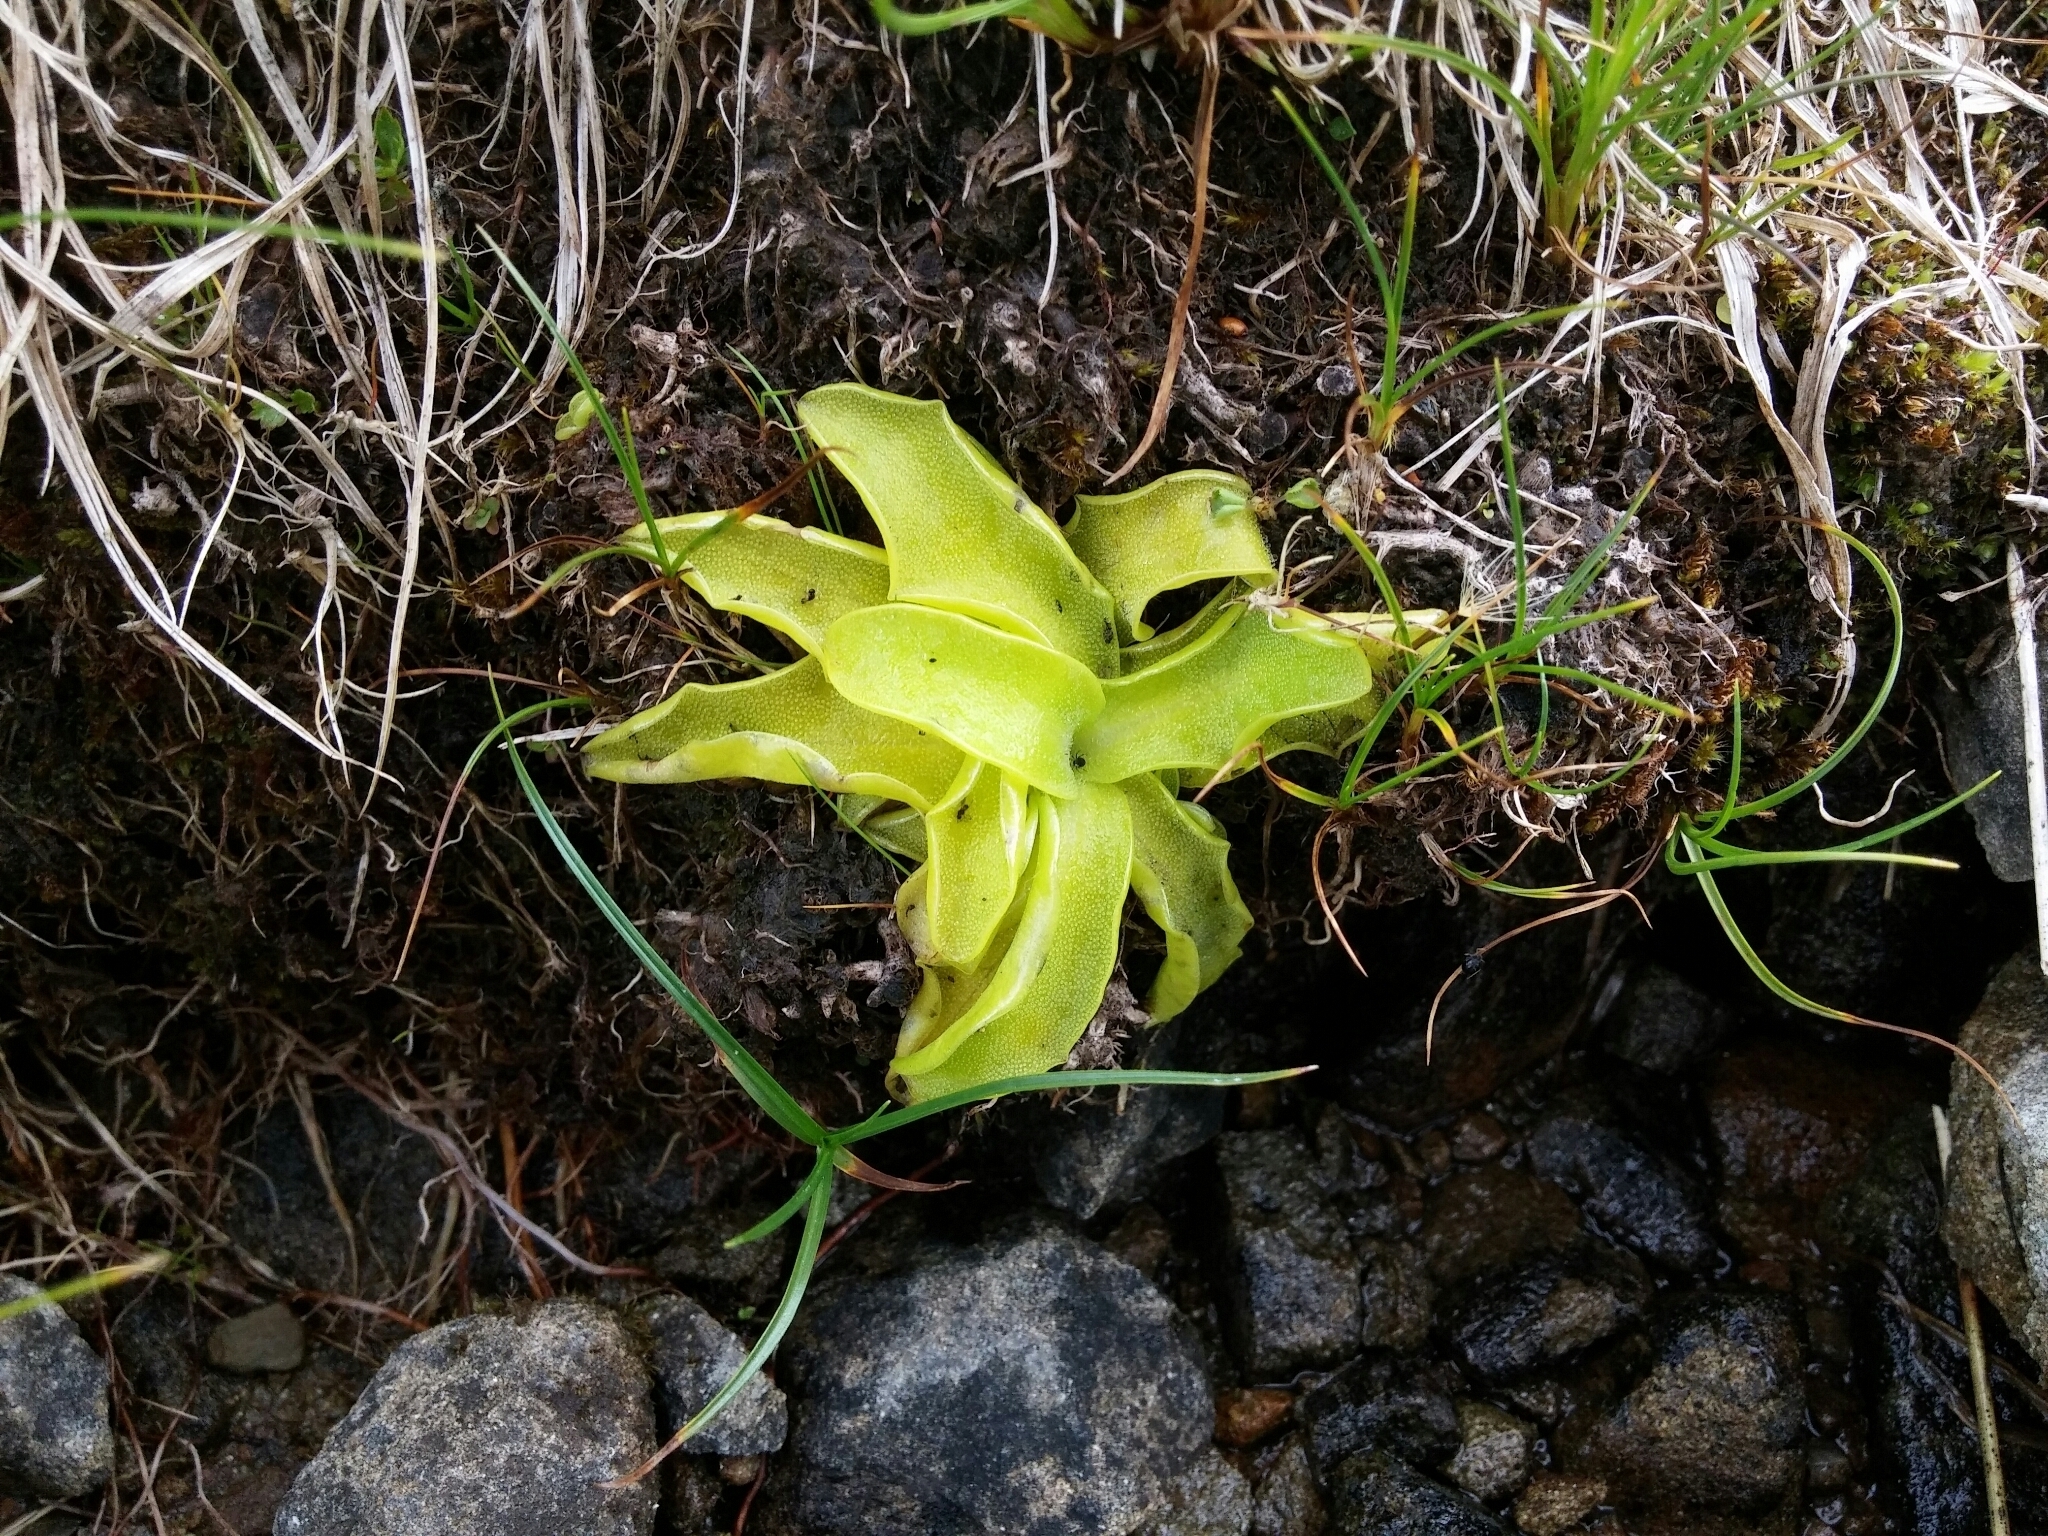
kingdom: Plantae
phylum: Tracheophyta
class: Magnoliopsida
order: Lamiales
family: Lentibulariaceae
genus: Pinguicula
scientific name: Pinguicula christinae
